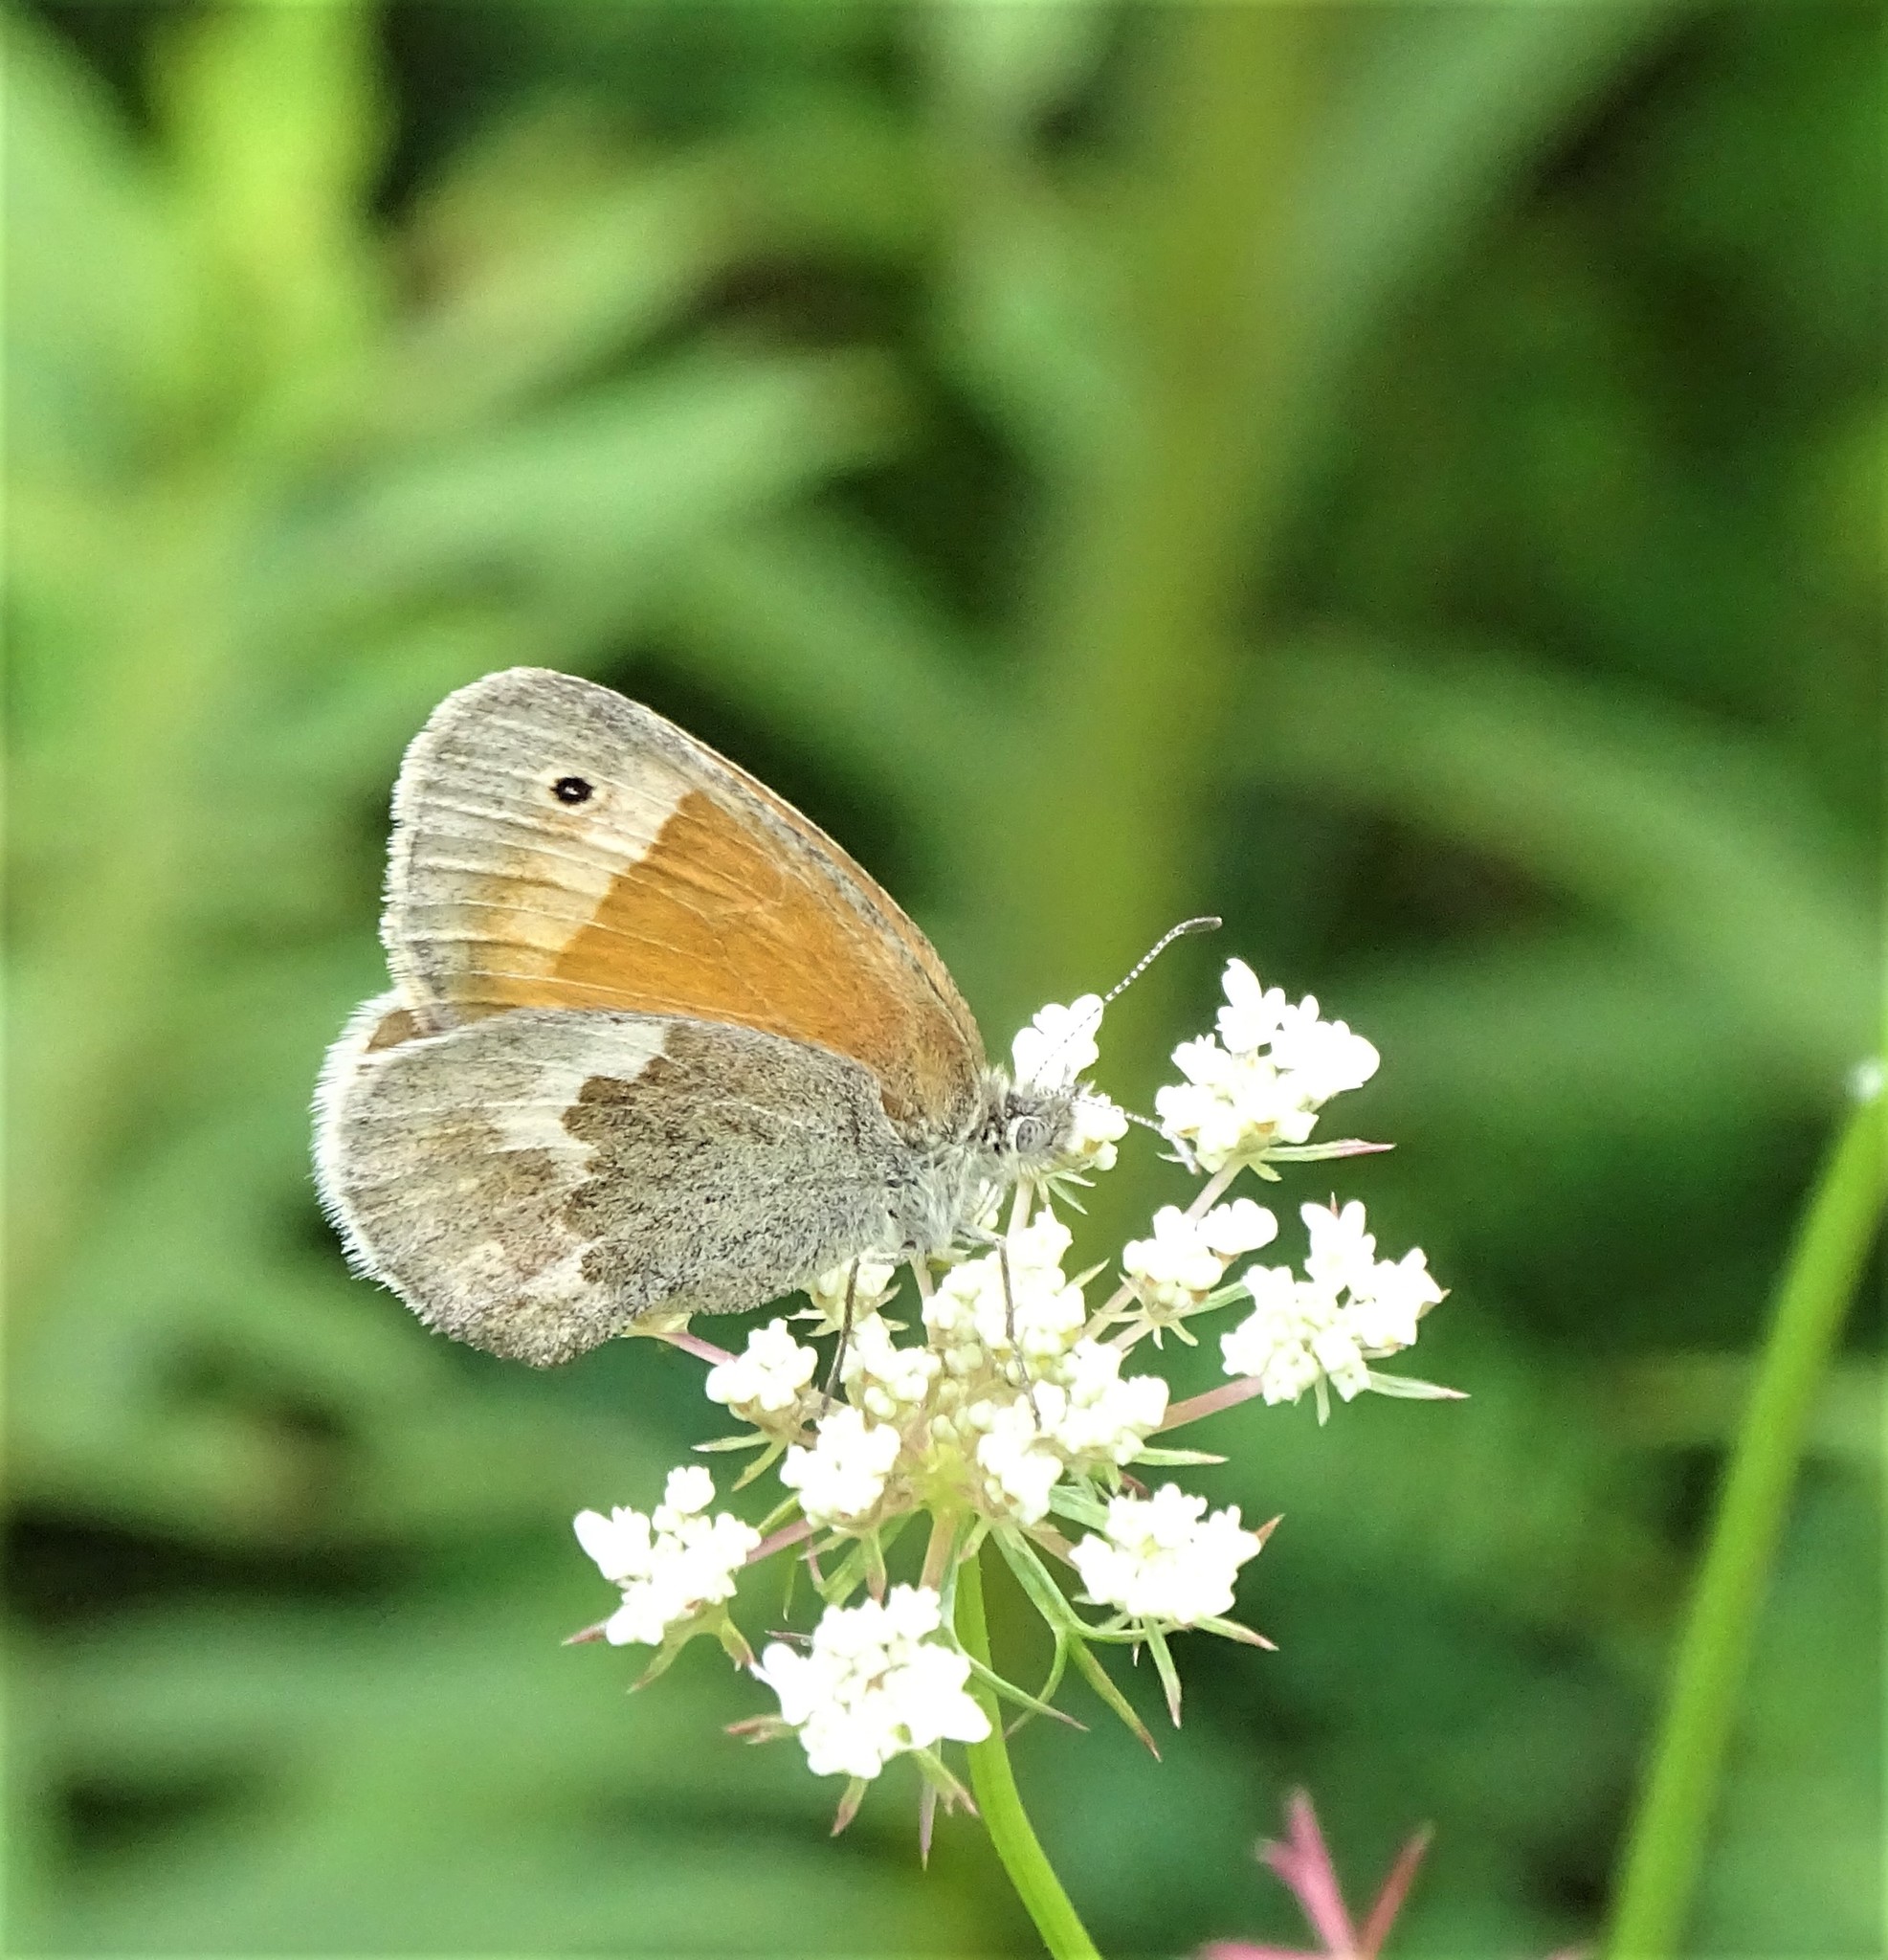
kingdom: Animalia
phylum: Arthropoda
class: Insecta
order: Lepidoptera
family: Nymphalidae
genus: Coenonympha
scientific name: Coenonympha california
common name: Common ringlet
